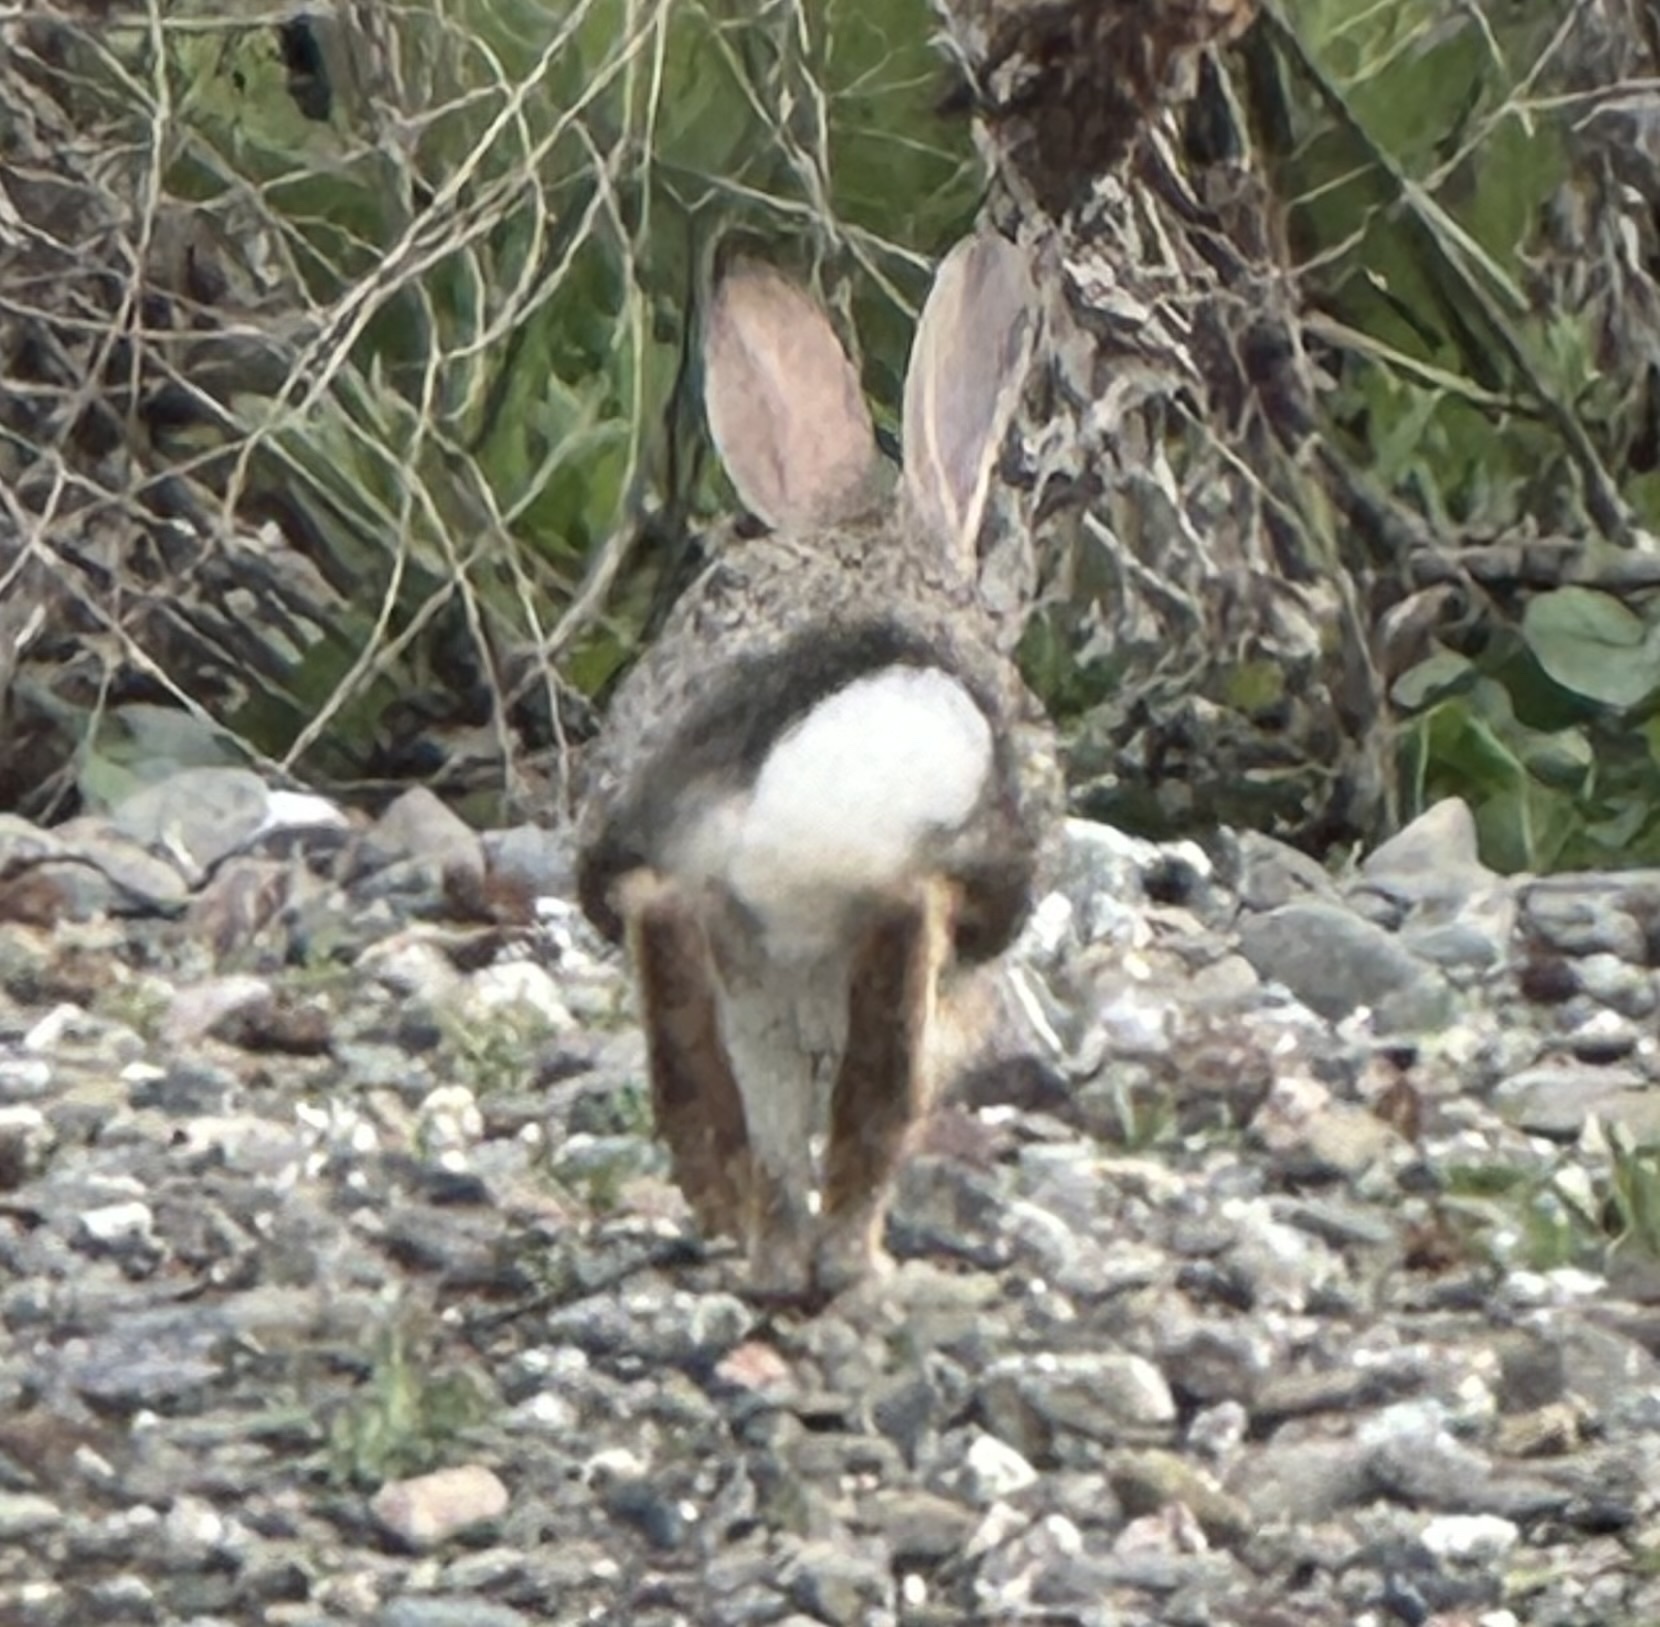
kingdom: Animalia
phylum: Chordata
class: Mammalia
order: Lagomorpha
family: Leporidae
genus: Sylvilagus
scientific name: Sylvilagus audubonii
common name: Desert cottontail
